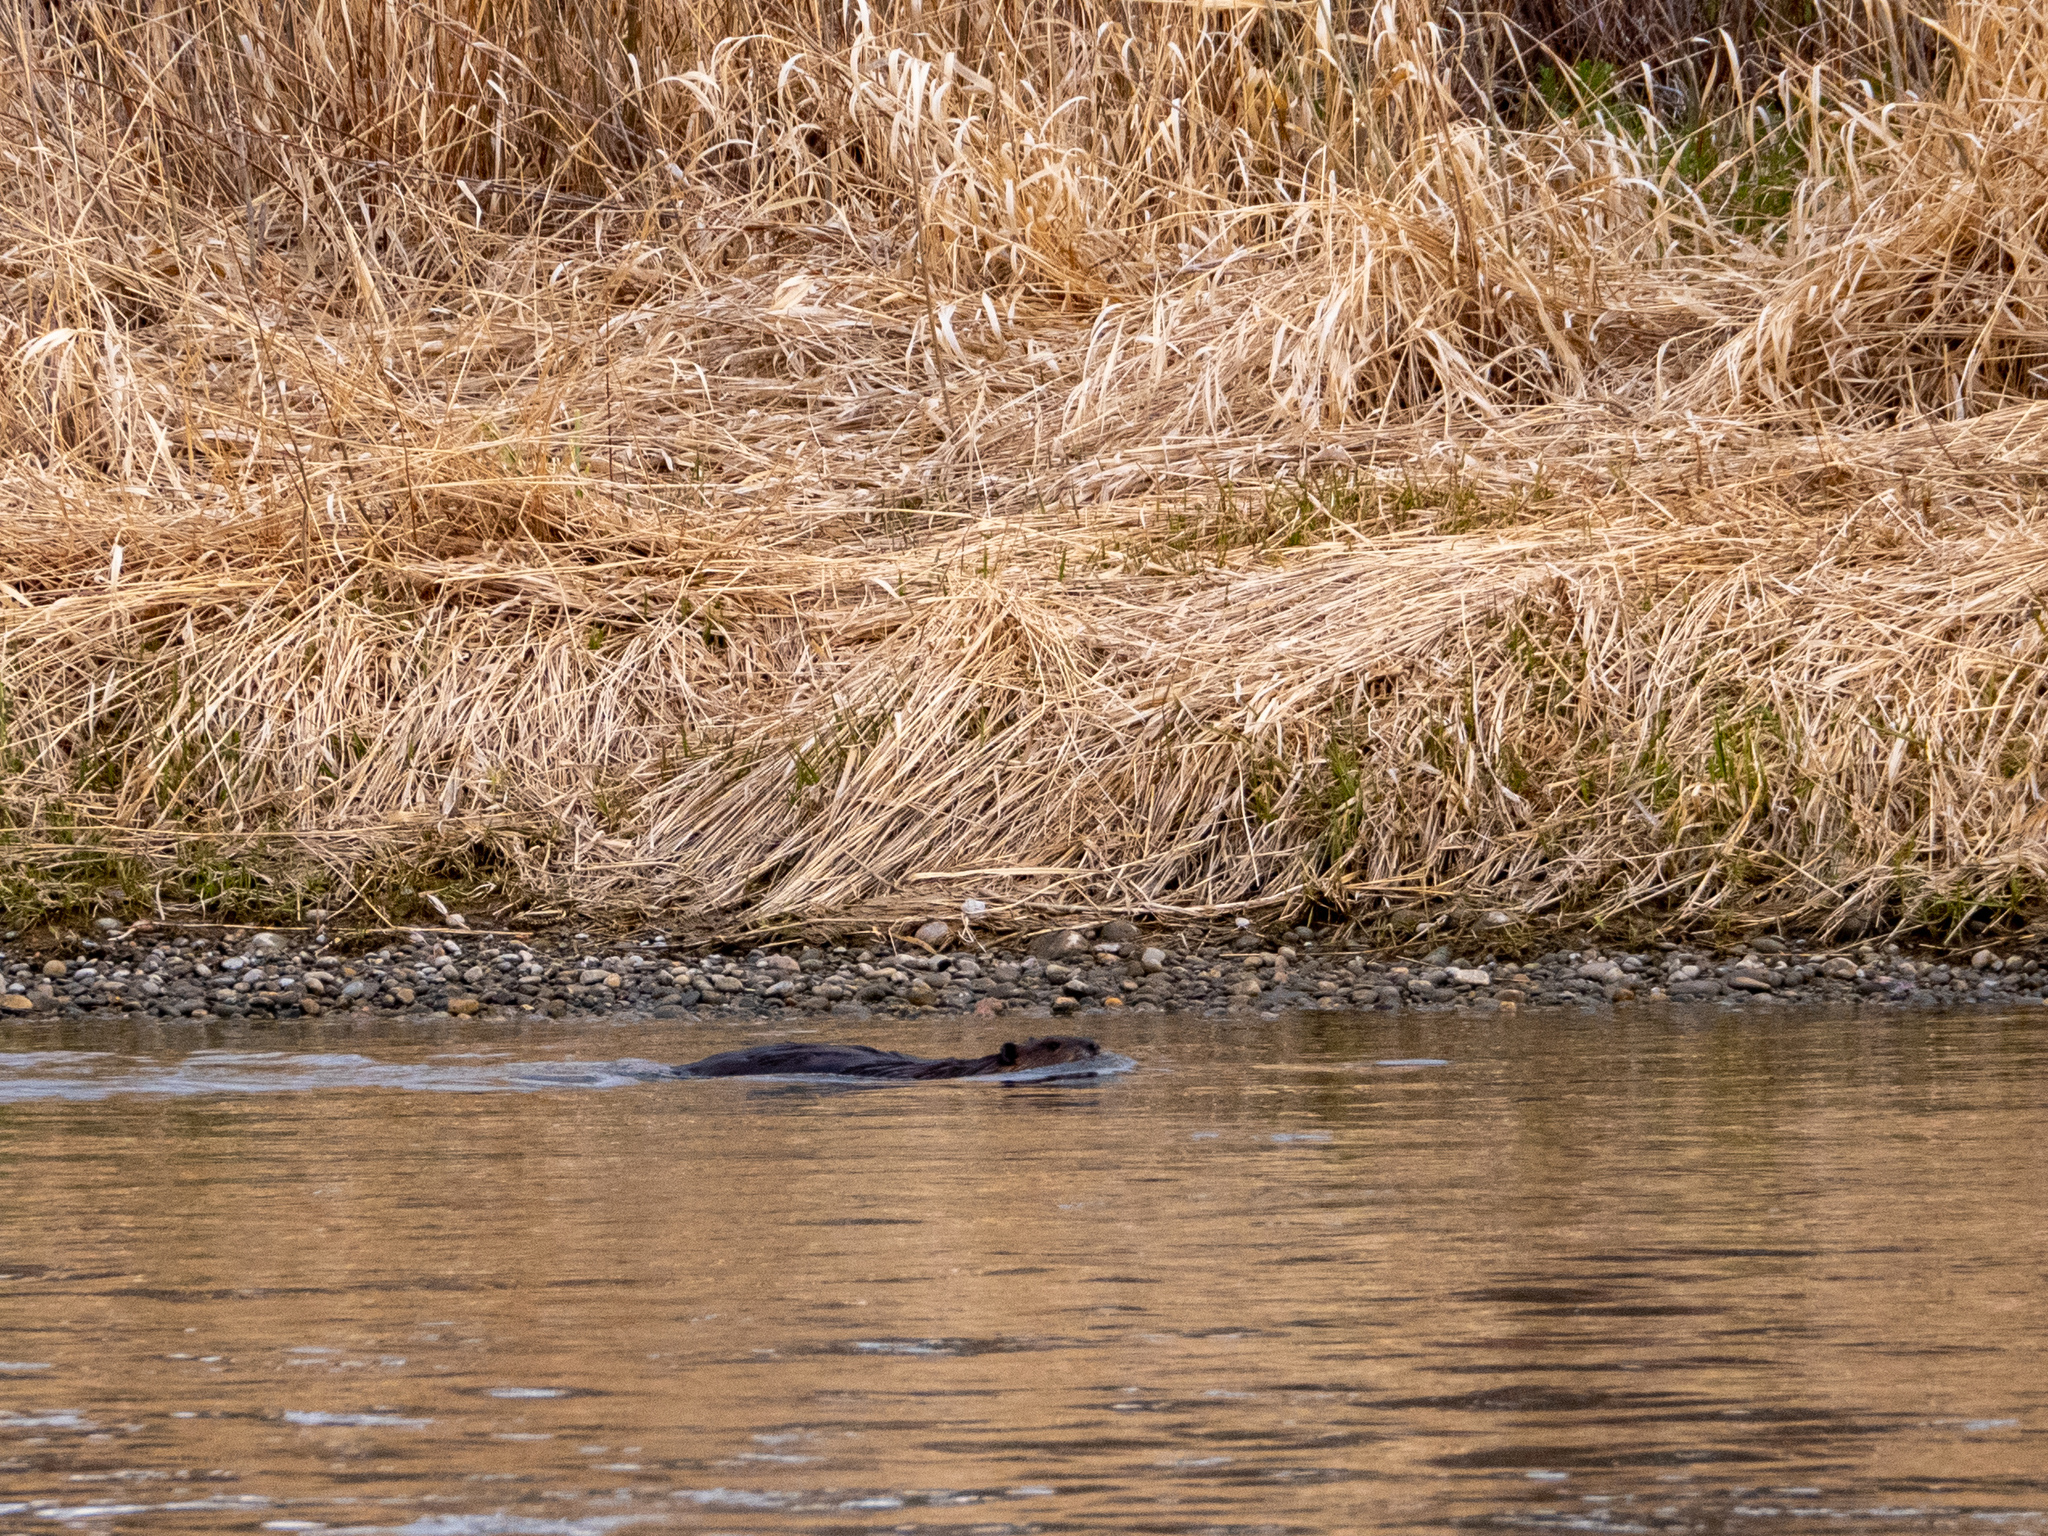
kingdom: Animalia
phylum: Chordata
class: Mammalia
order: Rodentia
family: Castoridae
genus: Castor
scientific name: Castor canadensis
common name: American beaver
